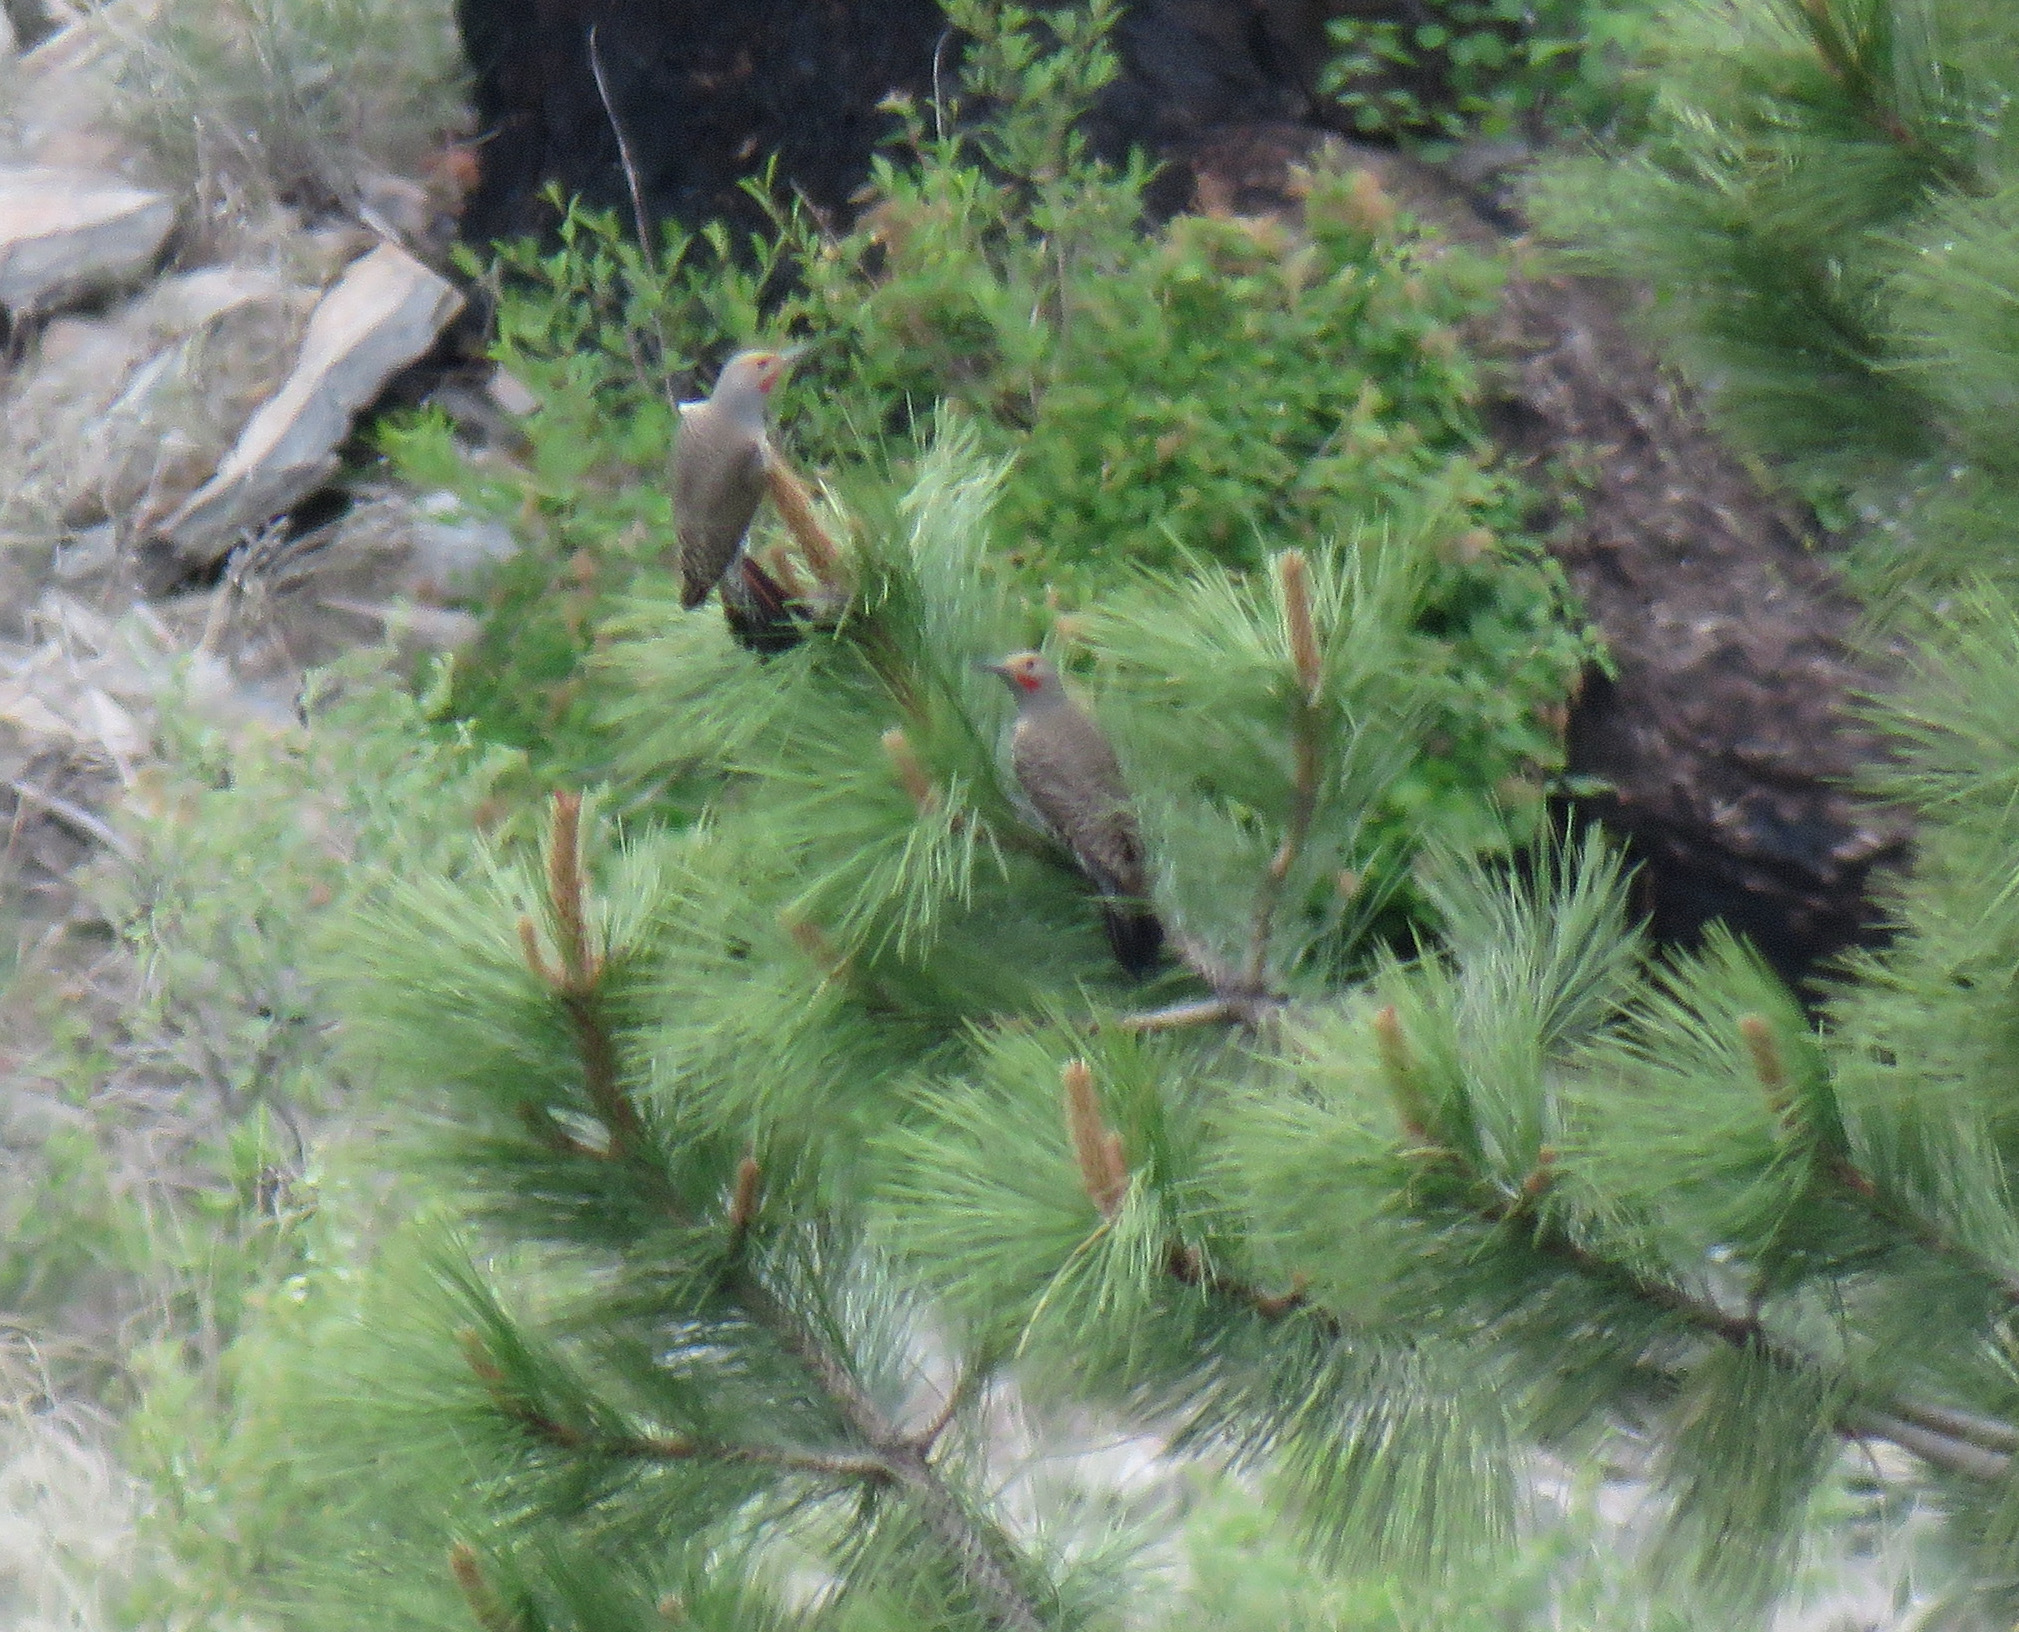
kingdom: Animalia
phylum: Chordata
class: Aves
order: Piciformes
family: Picidae
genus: Colaptes
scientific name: Colaptes auratus
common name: Northern flicker
